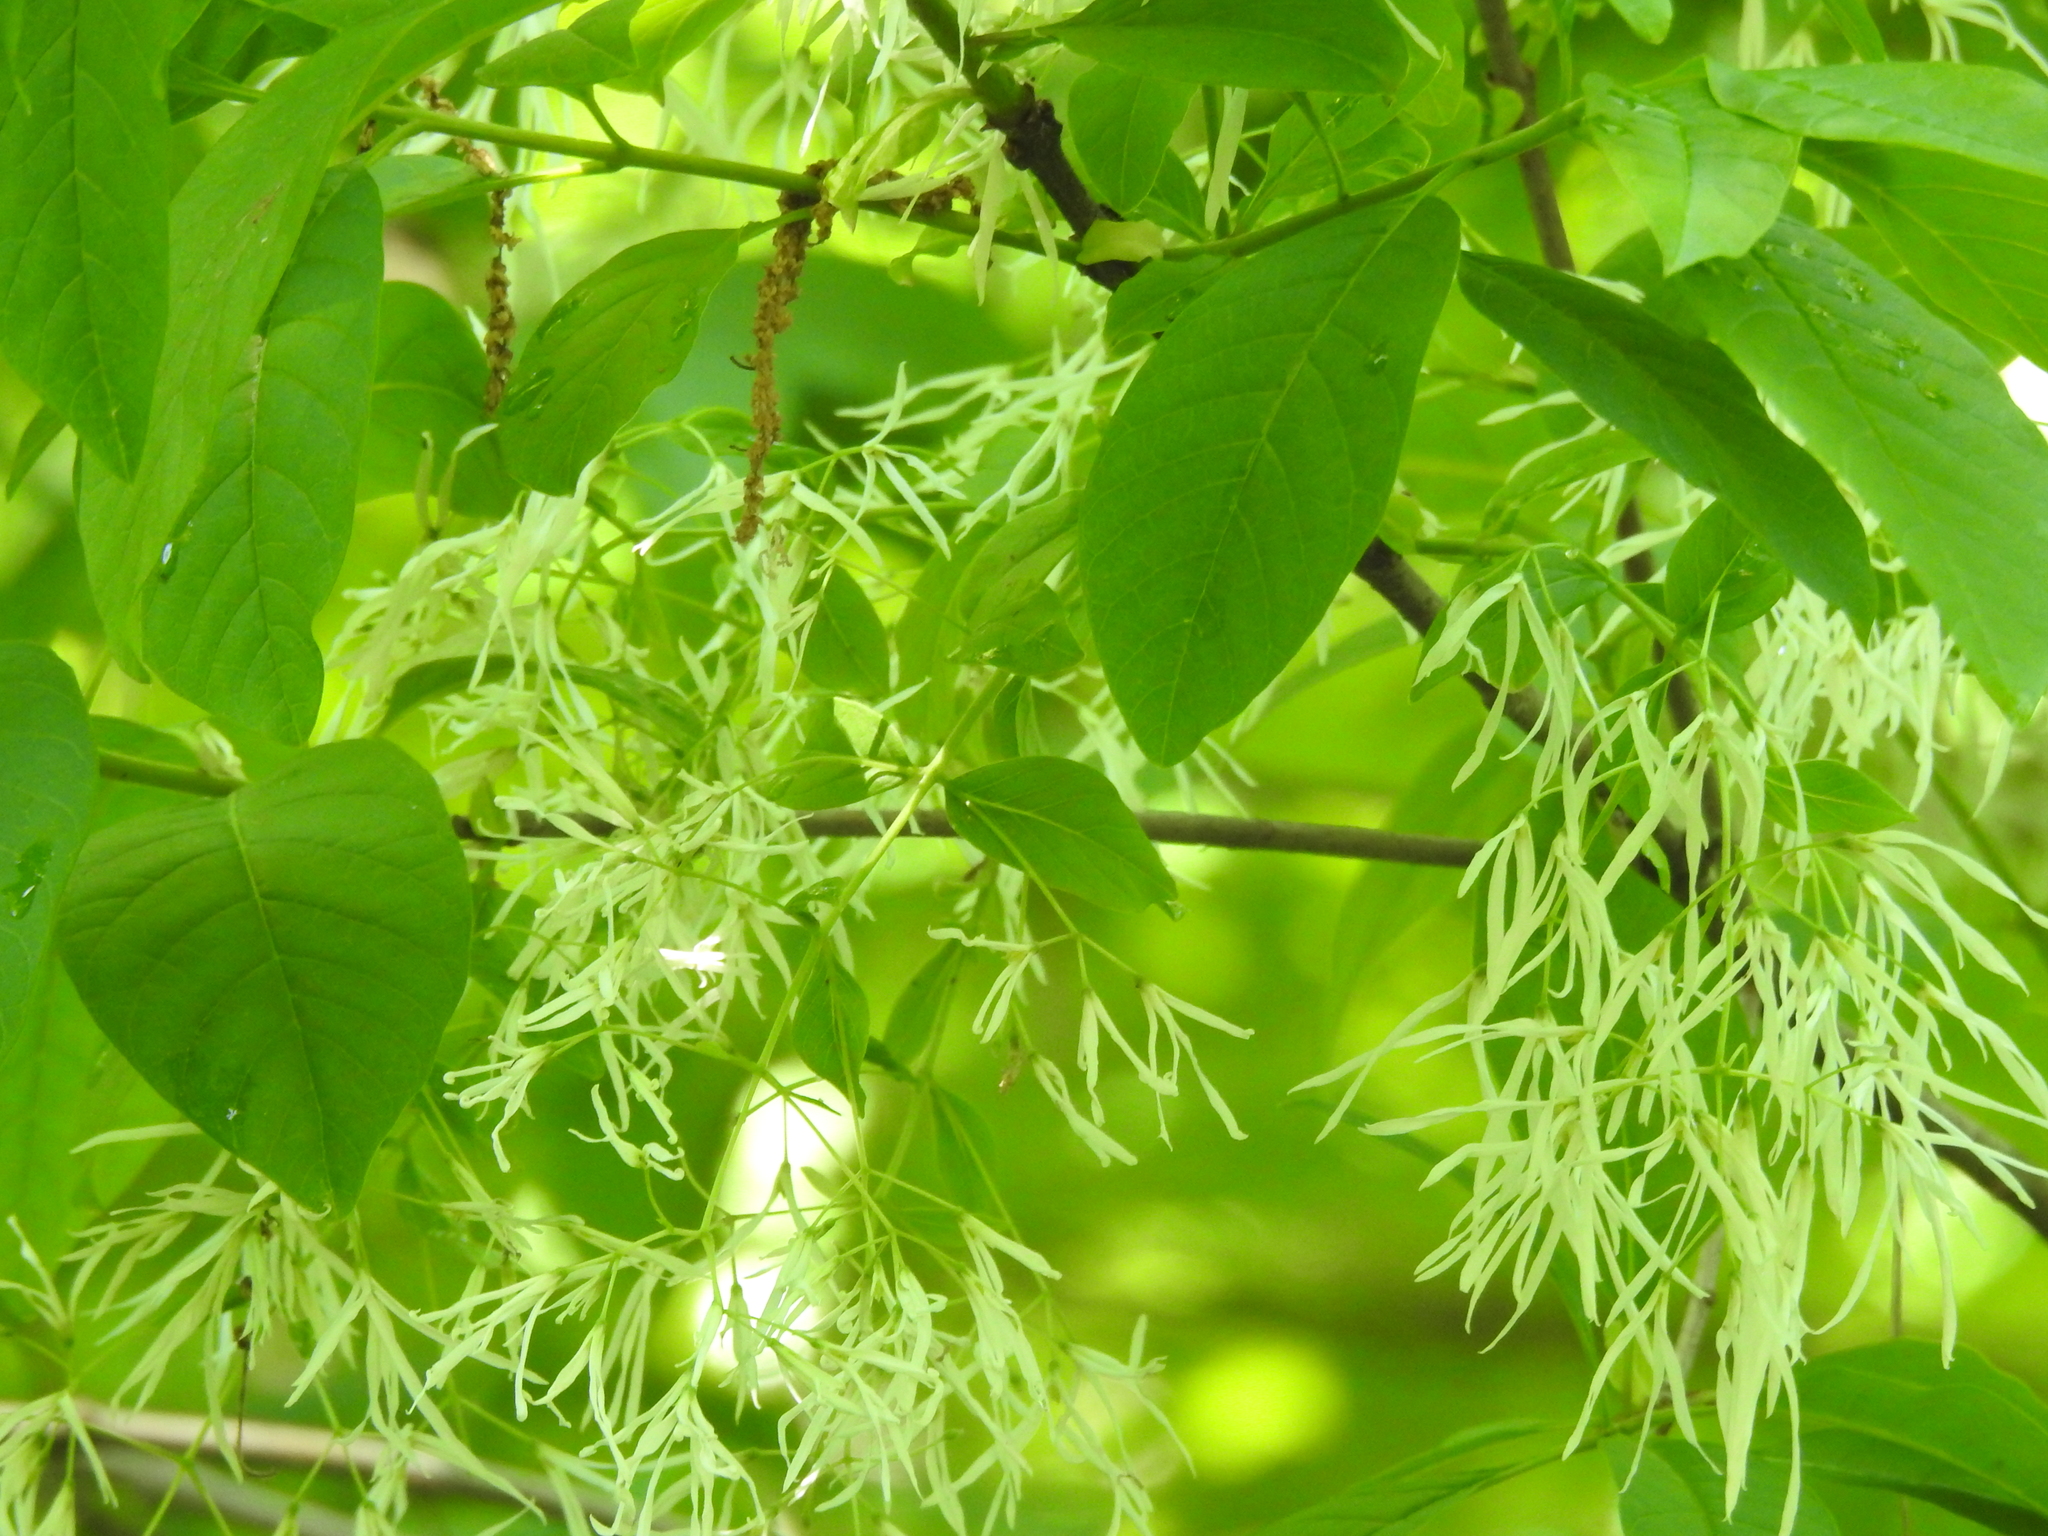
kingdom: Plantae
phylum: Tracheophyta
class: Magnoliopsida
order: Lamiales
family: Oleaceae
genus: Chionanthus
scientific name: Chionanthus virginicus
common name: American fringetree
